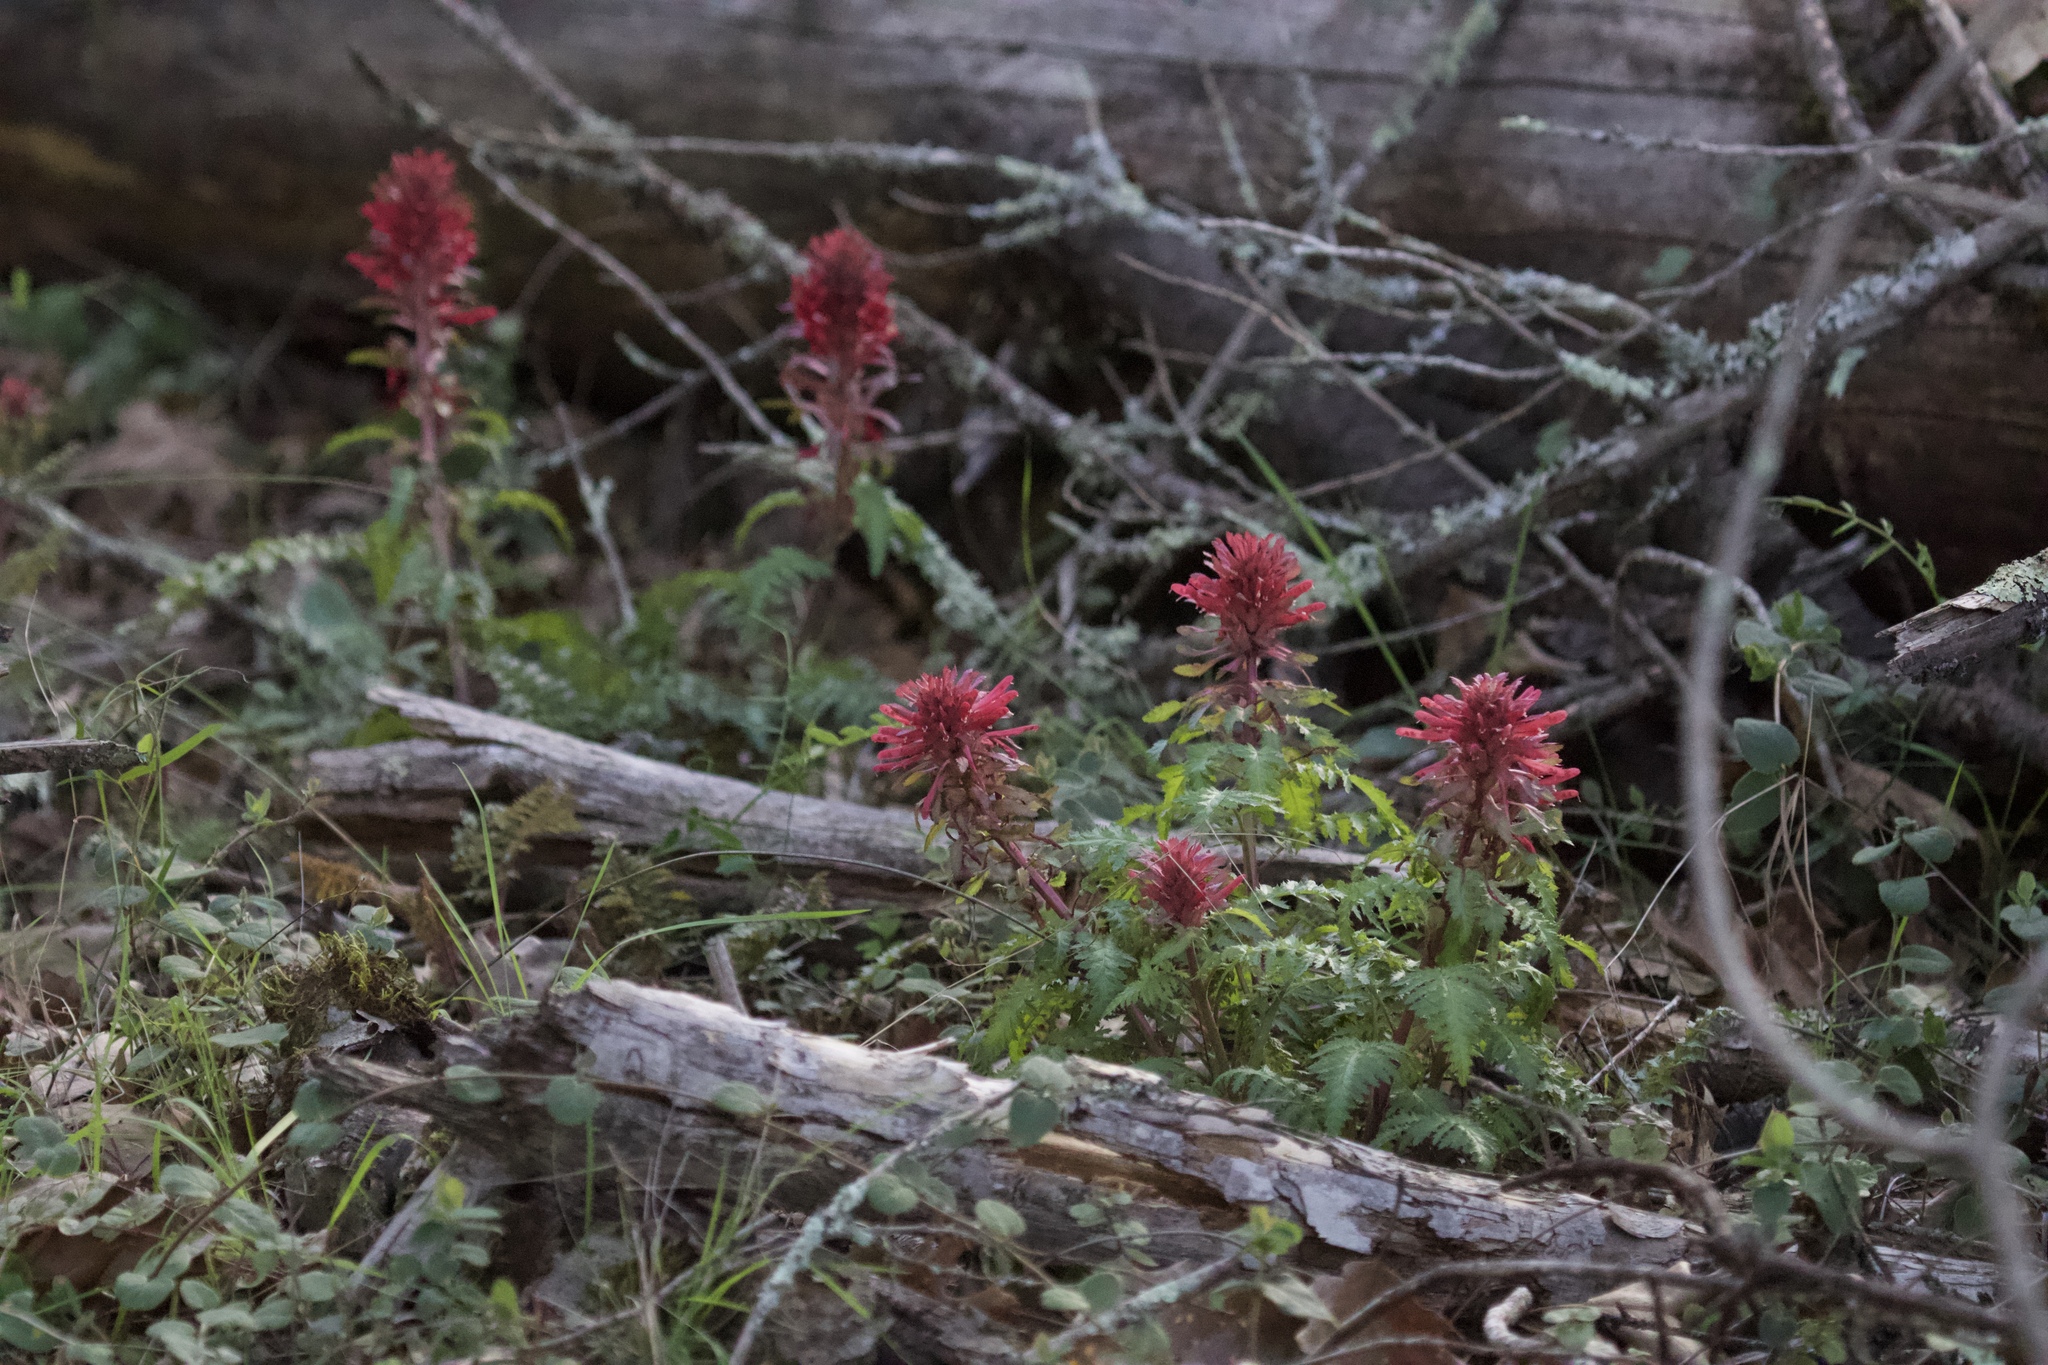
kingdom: Plantae
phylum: Tracheophyta
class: Magnoliopsida
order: Lamiales
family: Orobanchaceae
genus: Pedicularis
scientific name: Pedicularis densiflora
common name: Indian warrior
